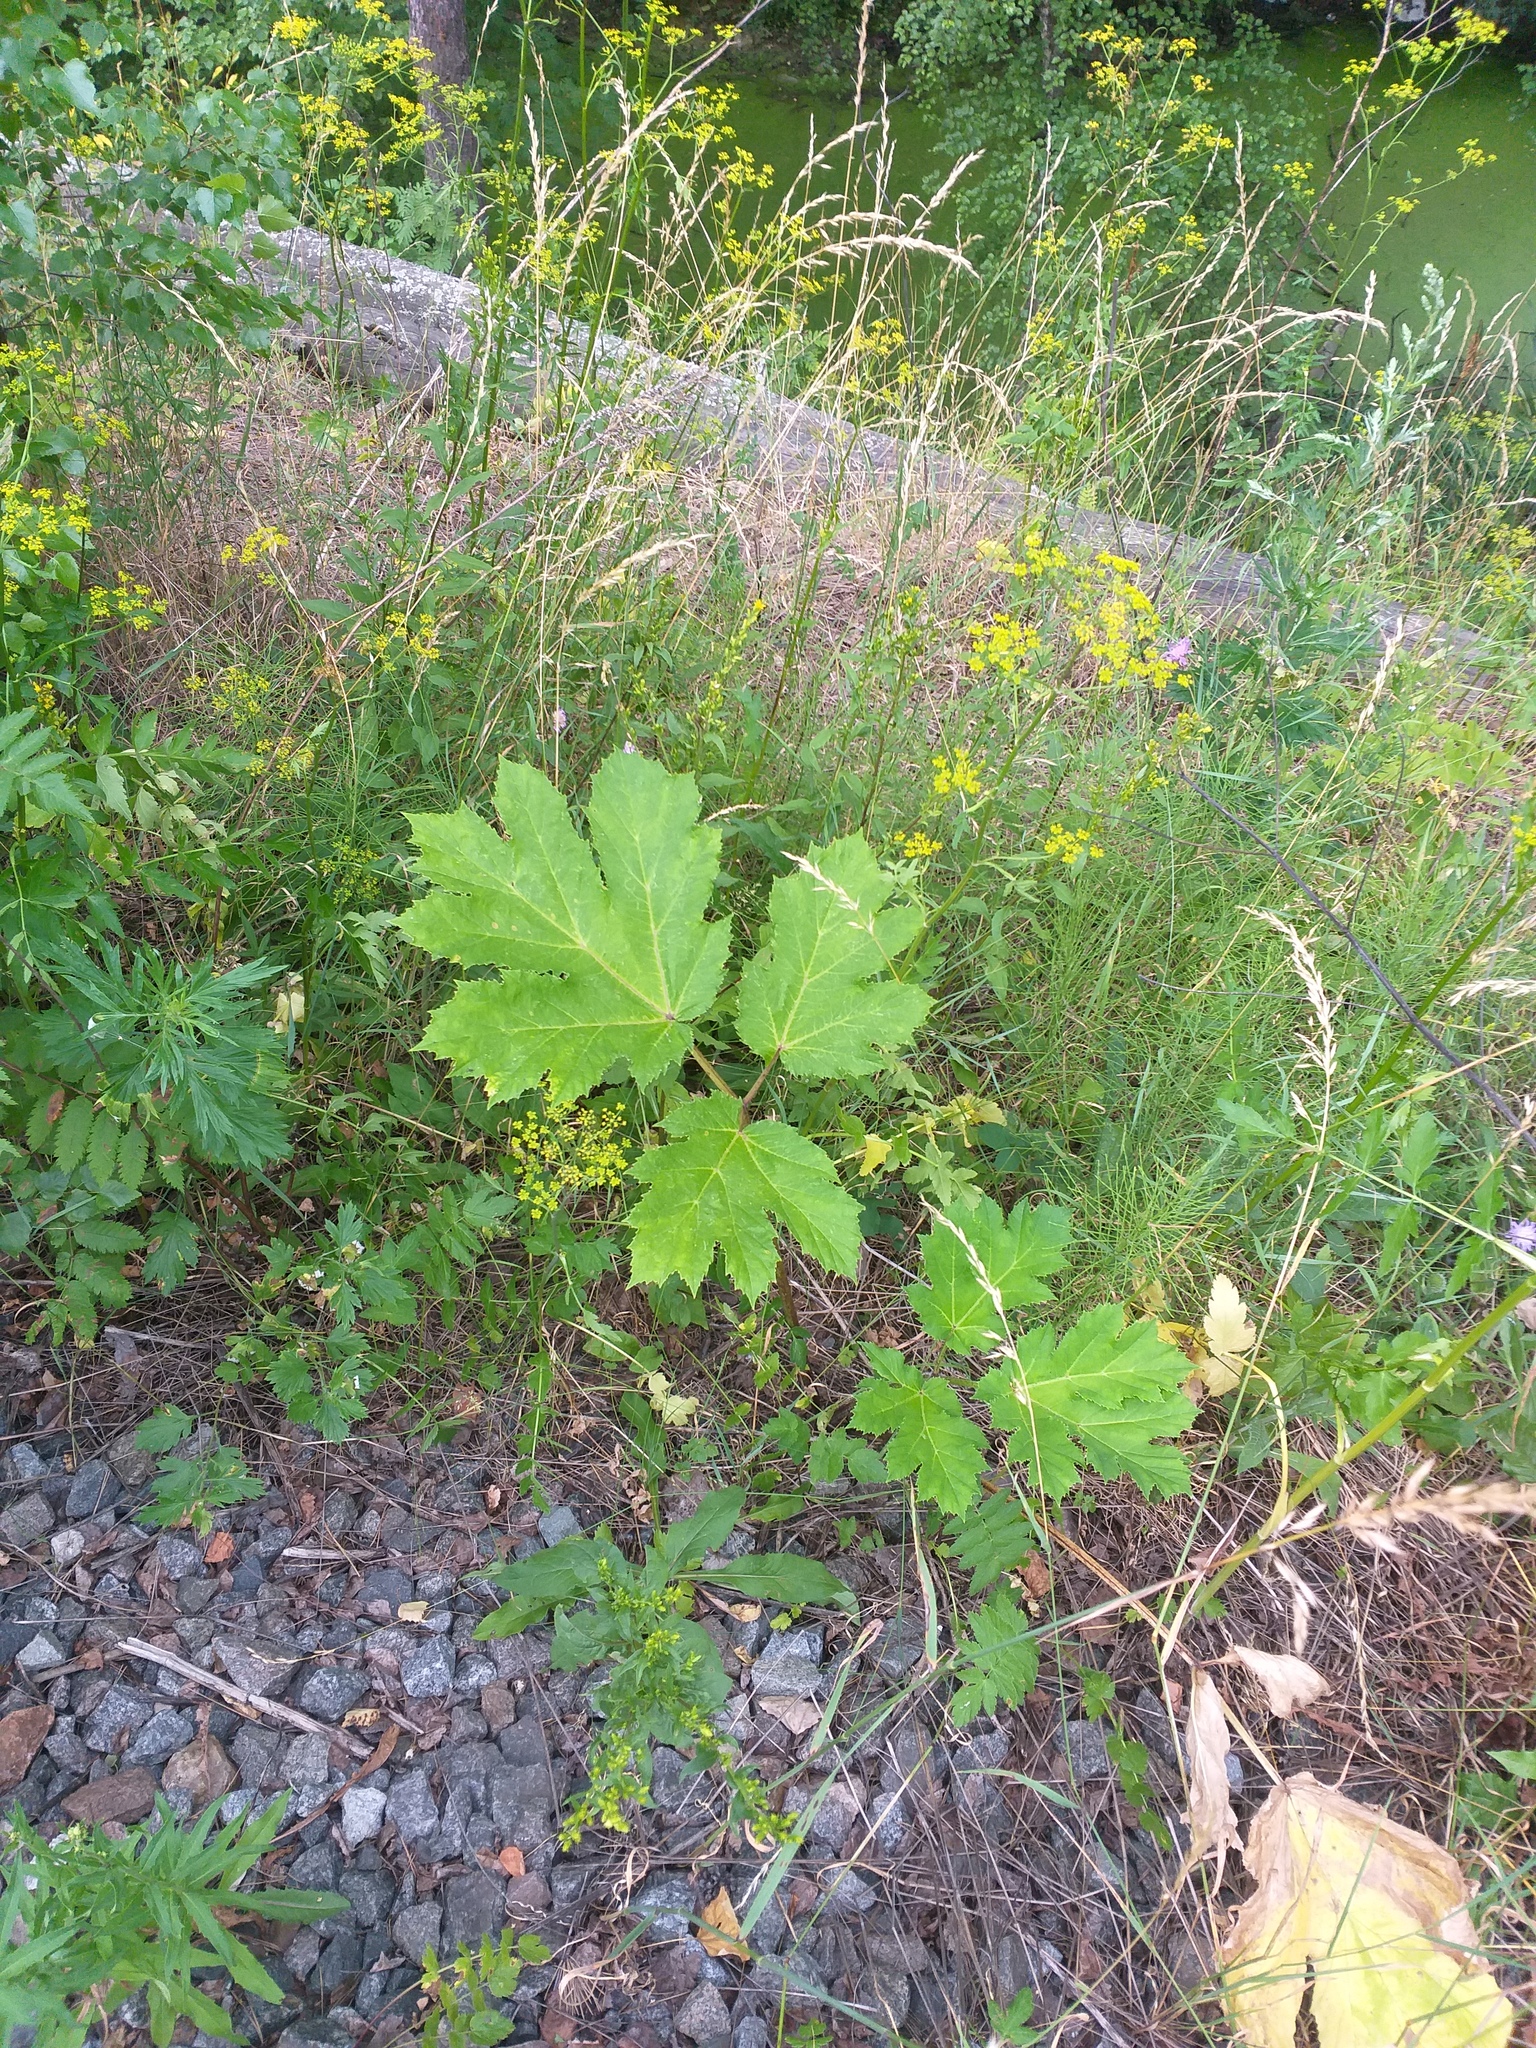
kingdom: Plantae
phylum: Tracheophyta
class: Magnoliopsida
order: Apiales
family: Apiaceae
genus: Heracleum
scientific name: Heracleum sosnowskyi
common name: Sosnowsky's hogweed
